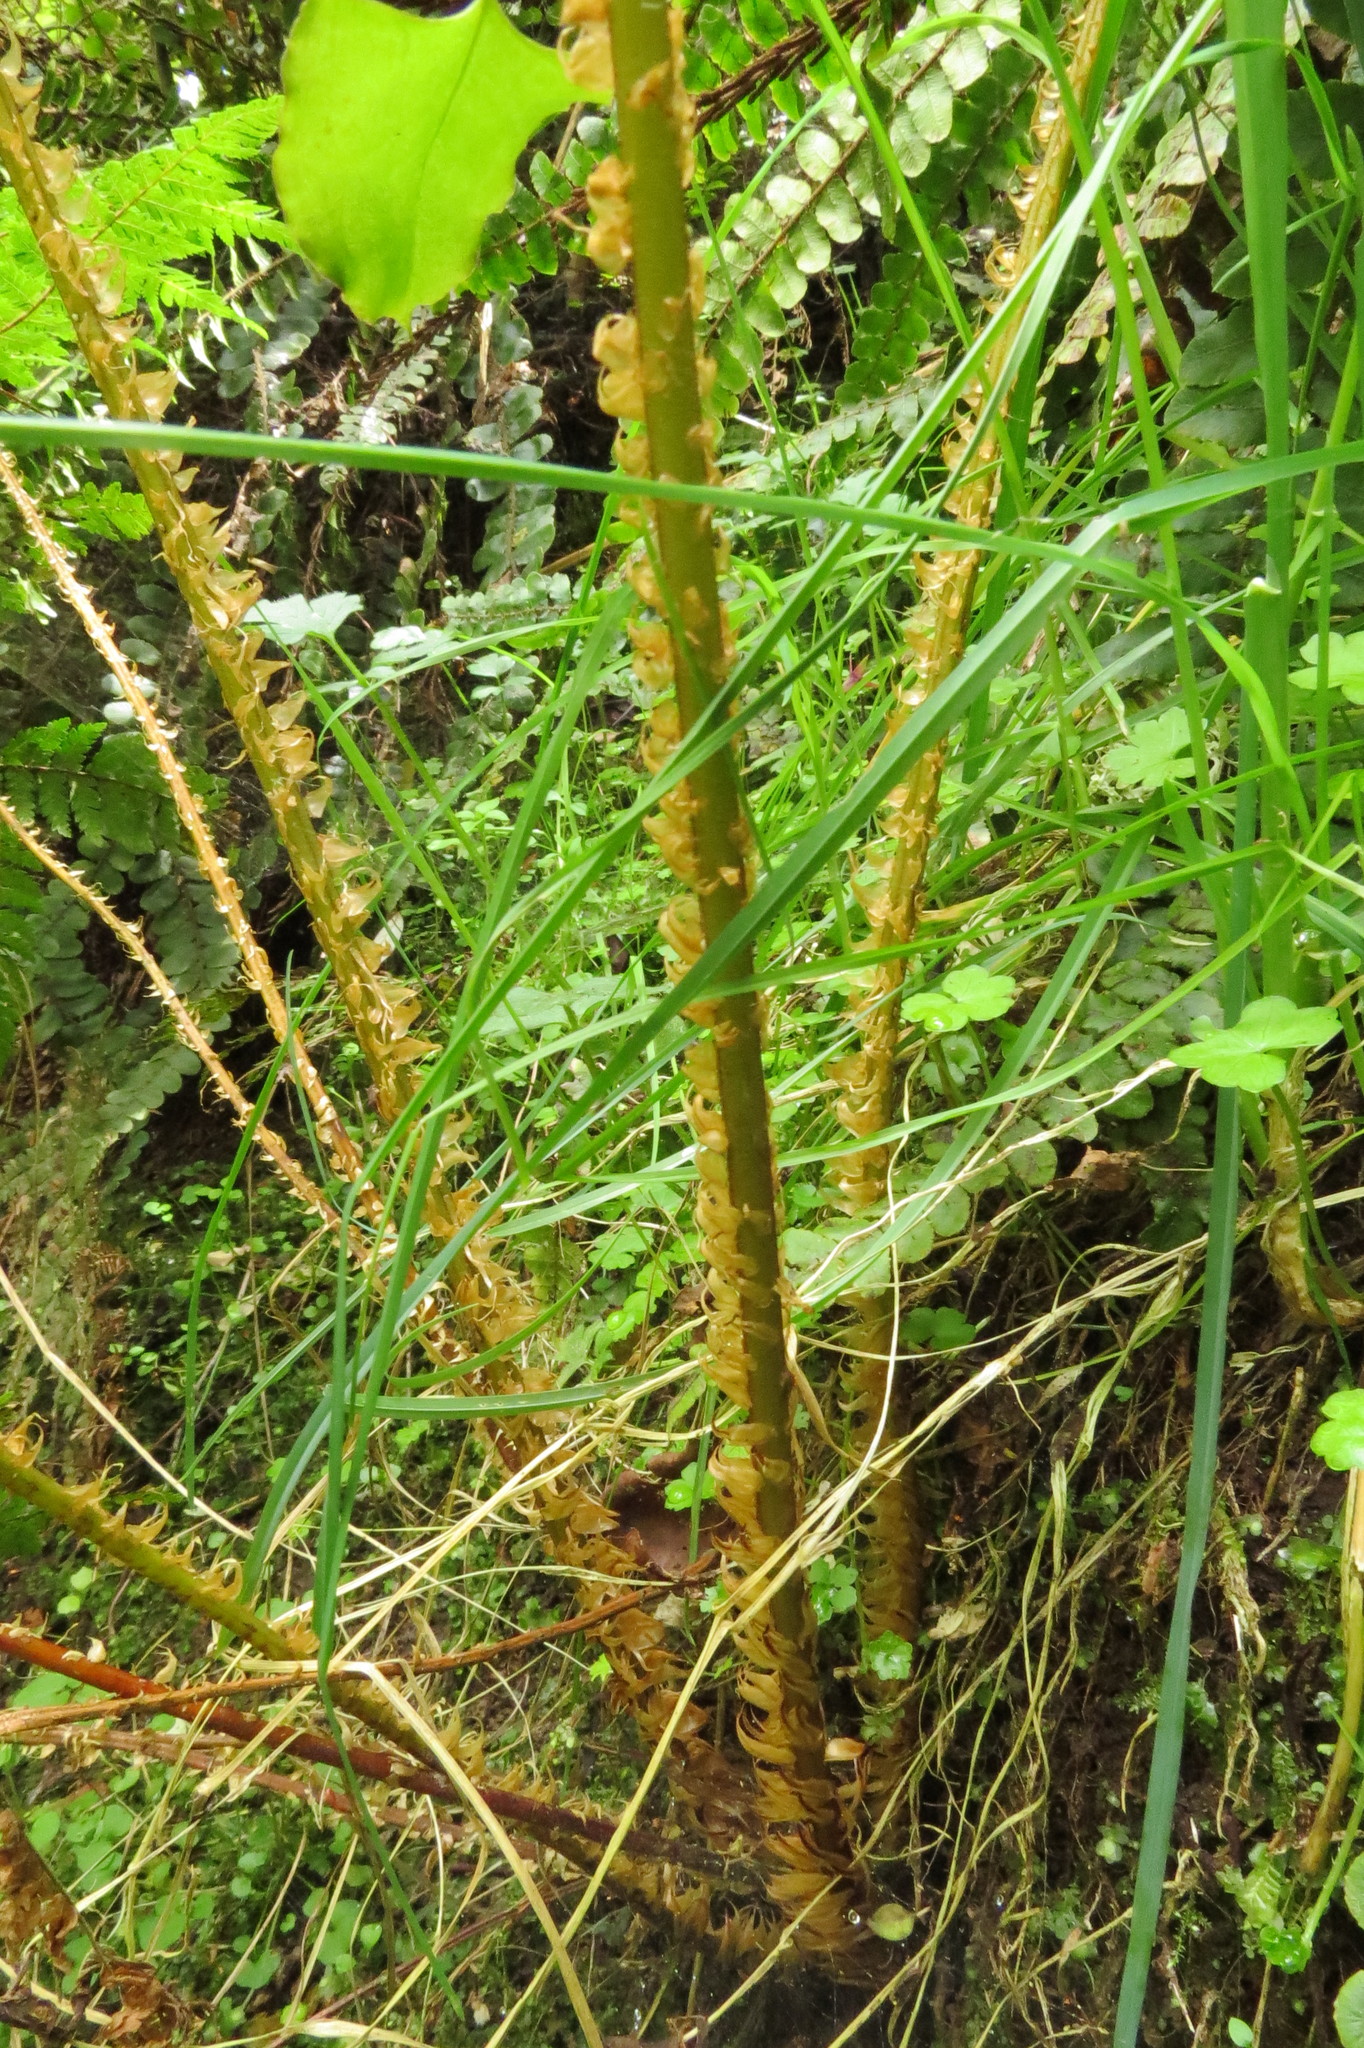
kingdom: Plantae
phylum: Tracheophyta
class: Polypodiopsida
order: Cyatheales
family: Cyatheaceae
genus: Alsophila
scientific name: Alsophila smithii
